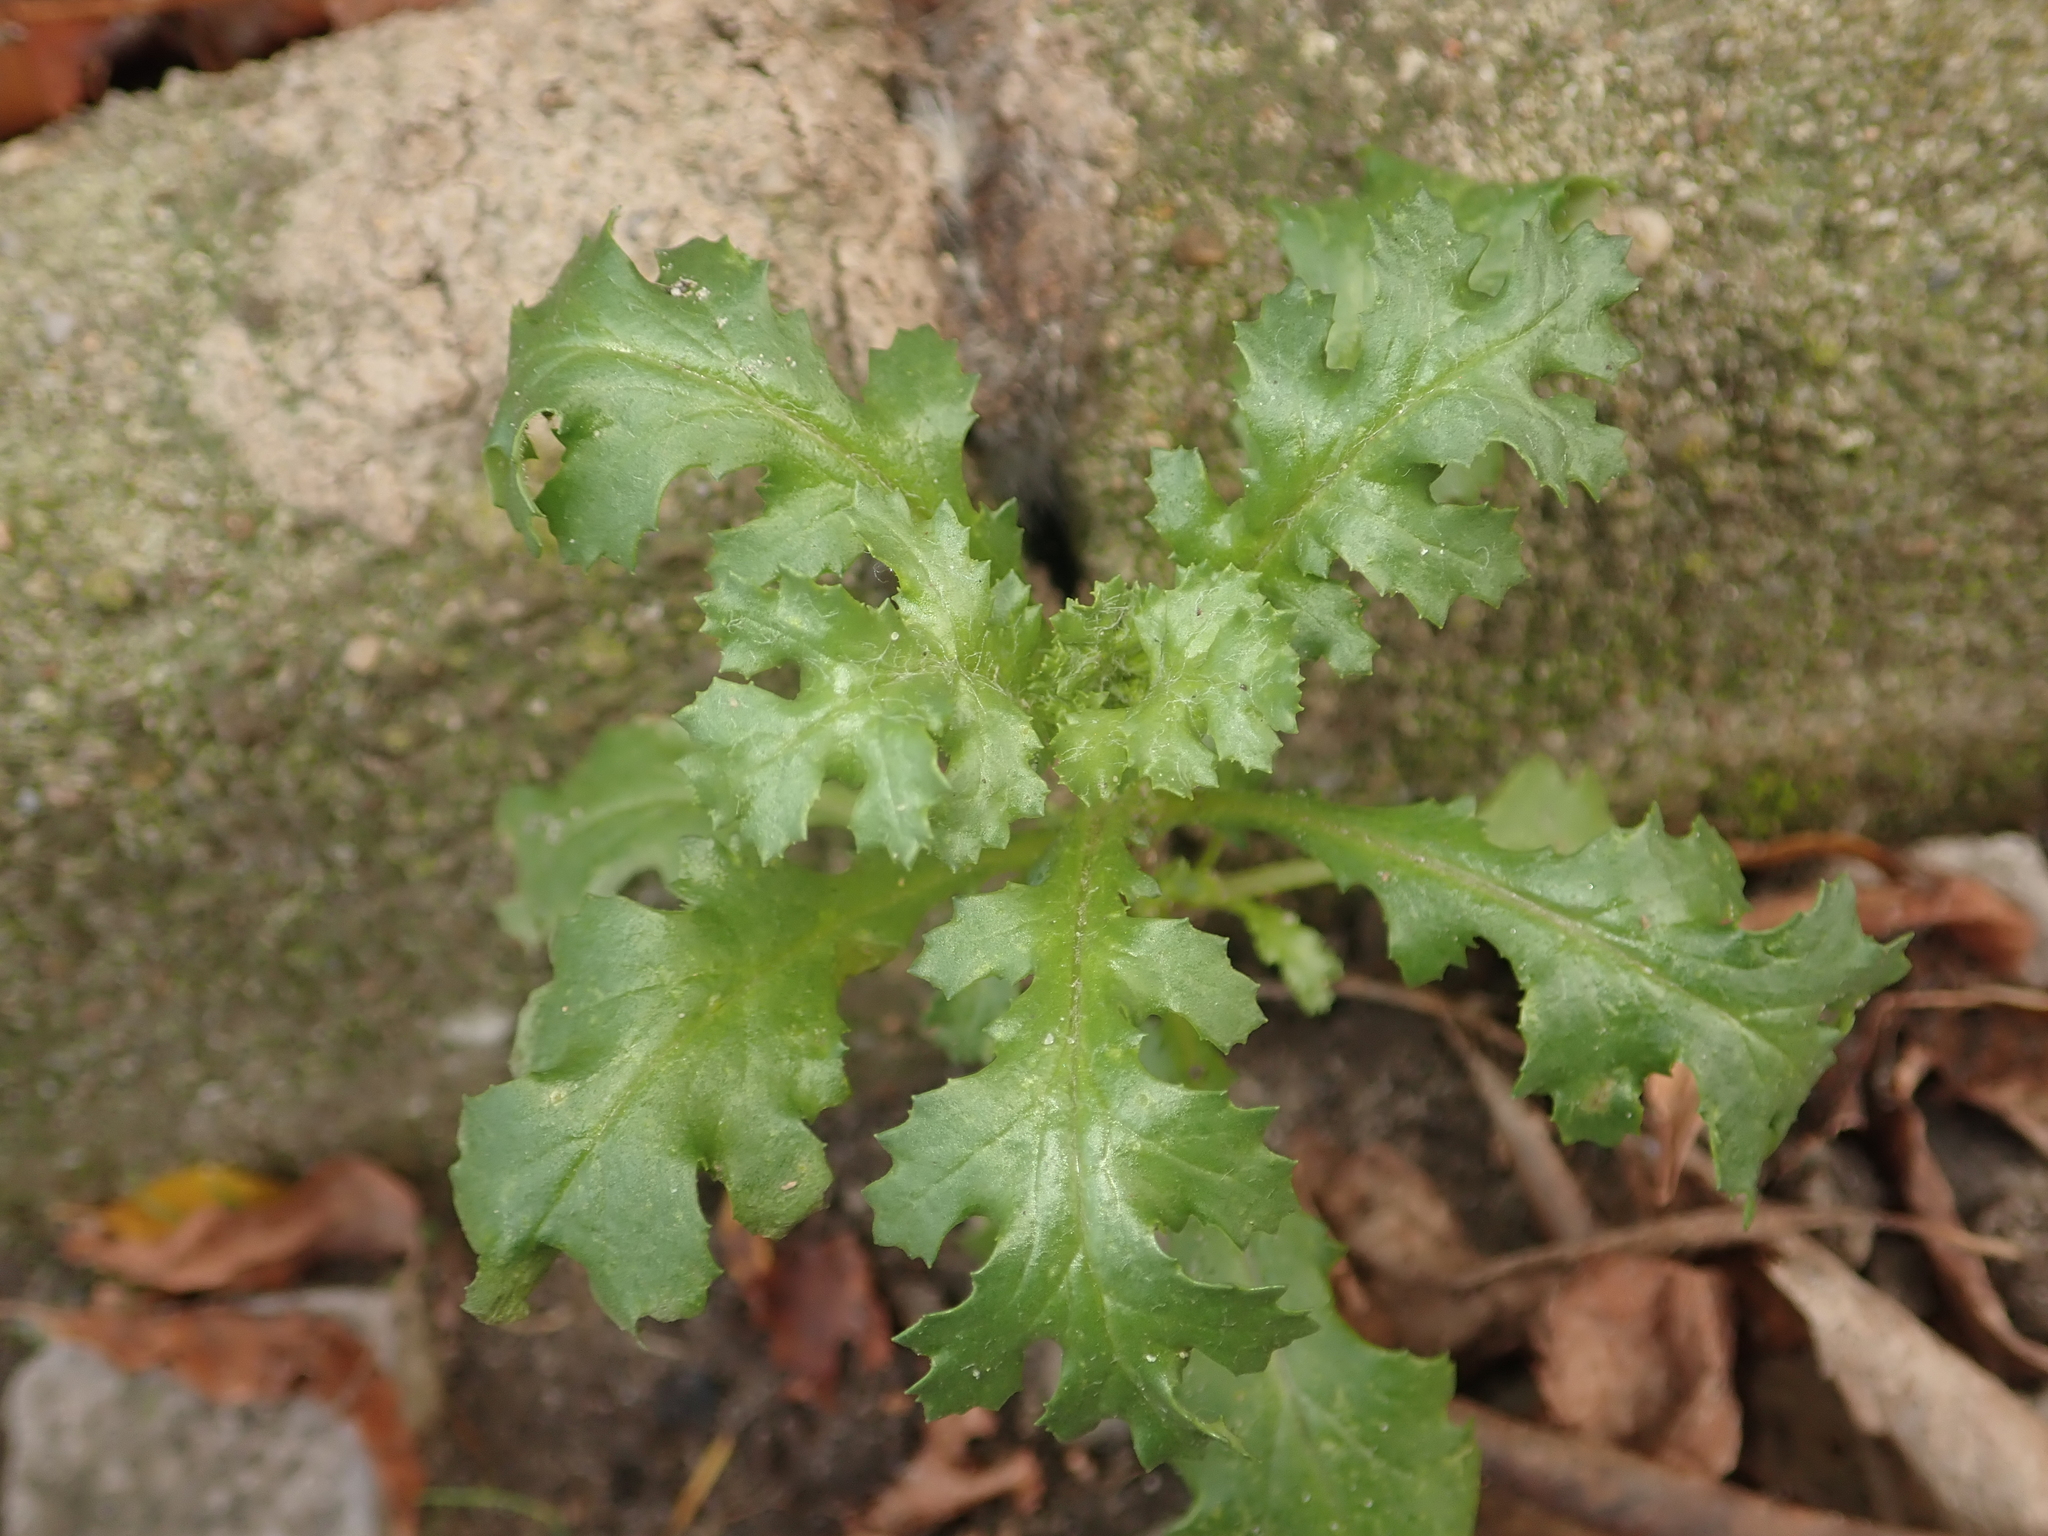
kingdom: Plantae
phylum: Tracheophyta
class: Magnoliopsida
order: Asterales
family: Asteraceae
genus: Senecio
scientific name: Senecio vulgaris
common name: Old-man-in-the-spring
